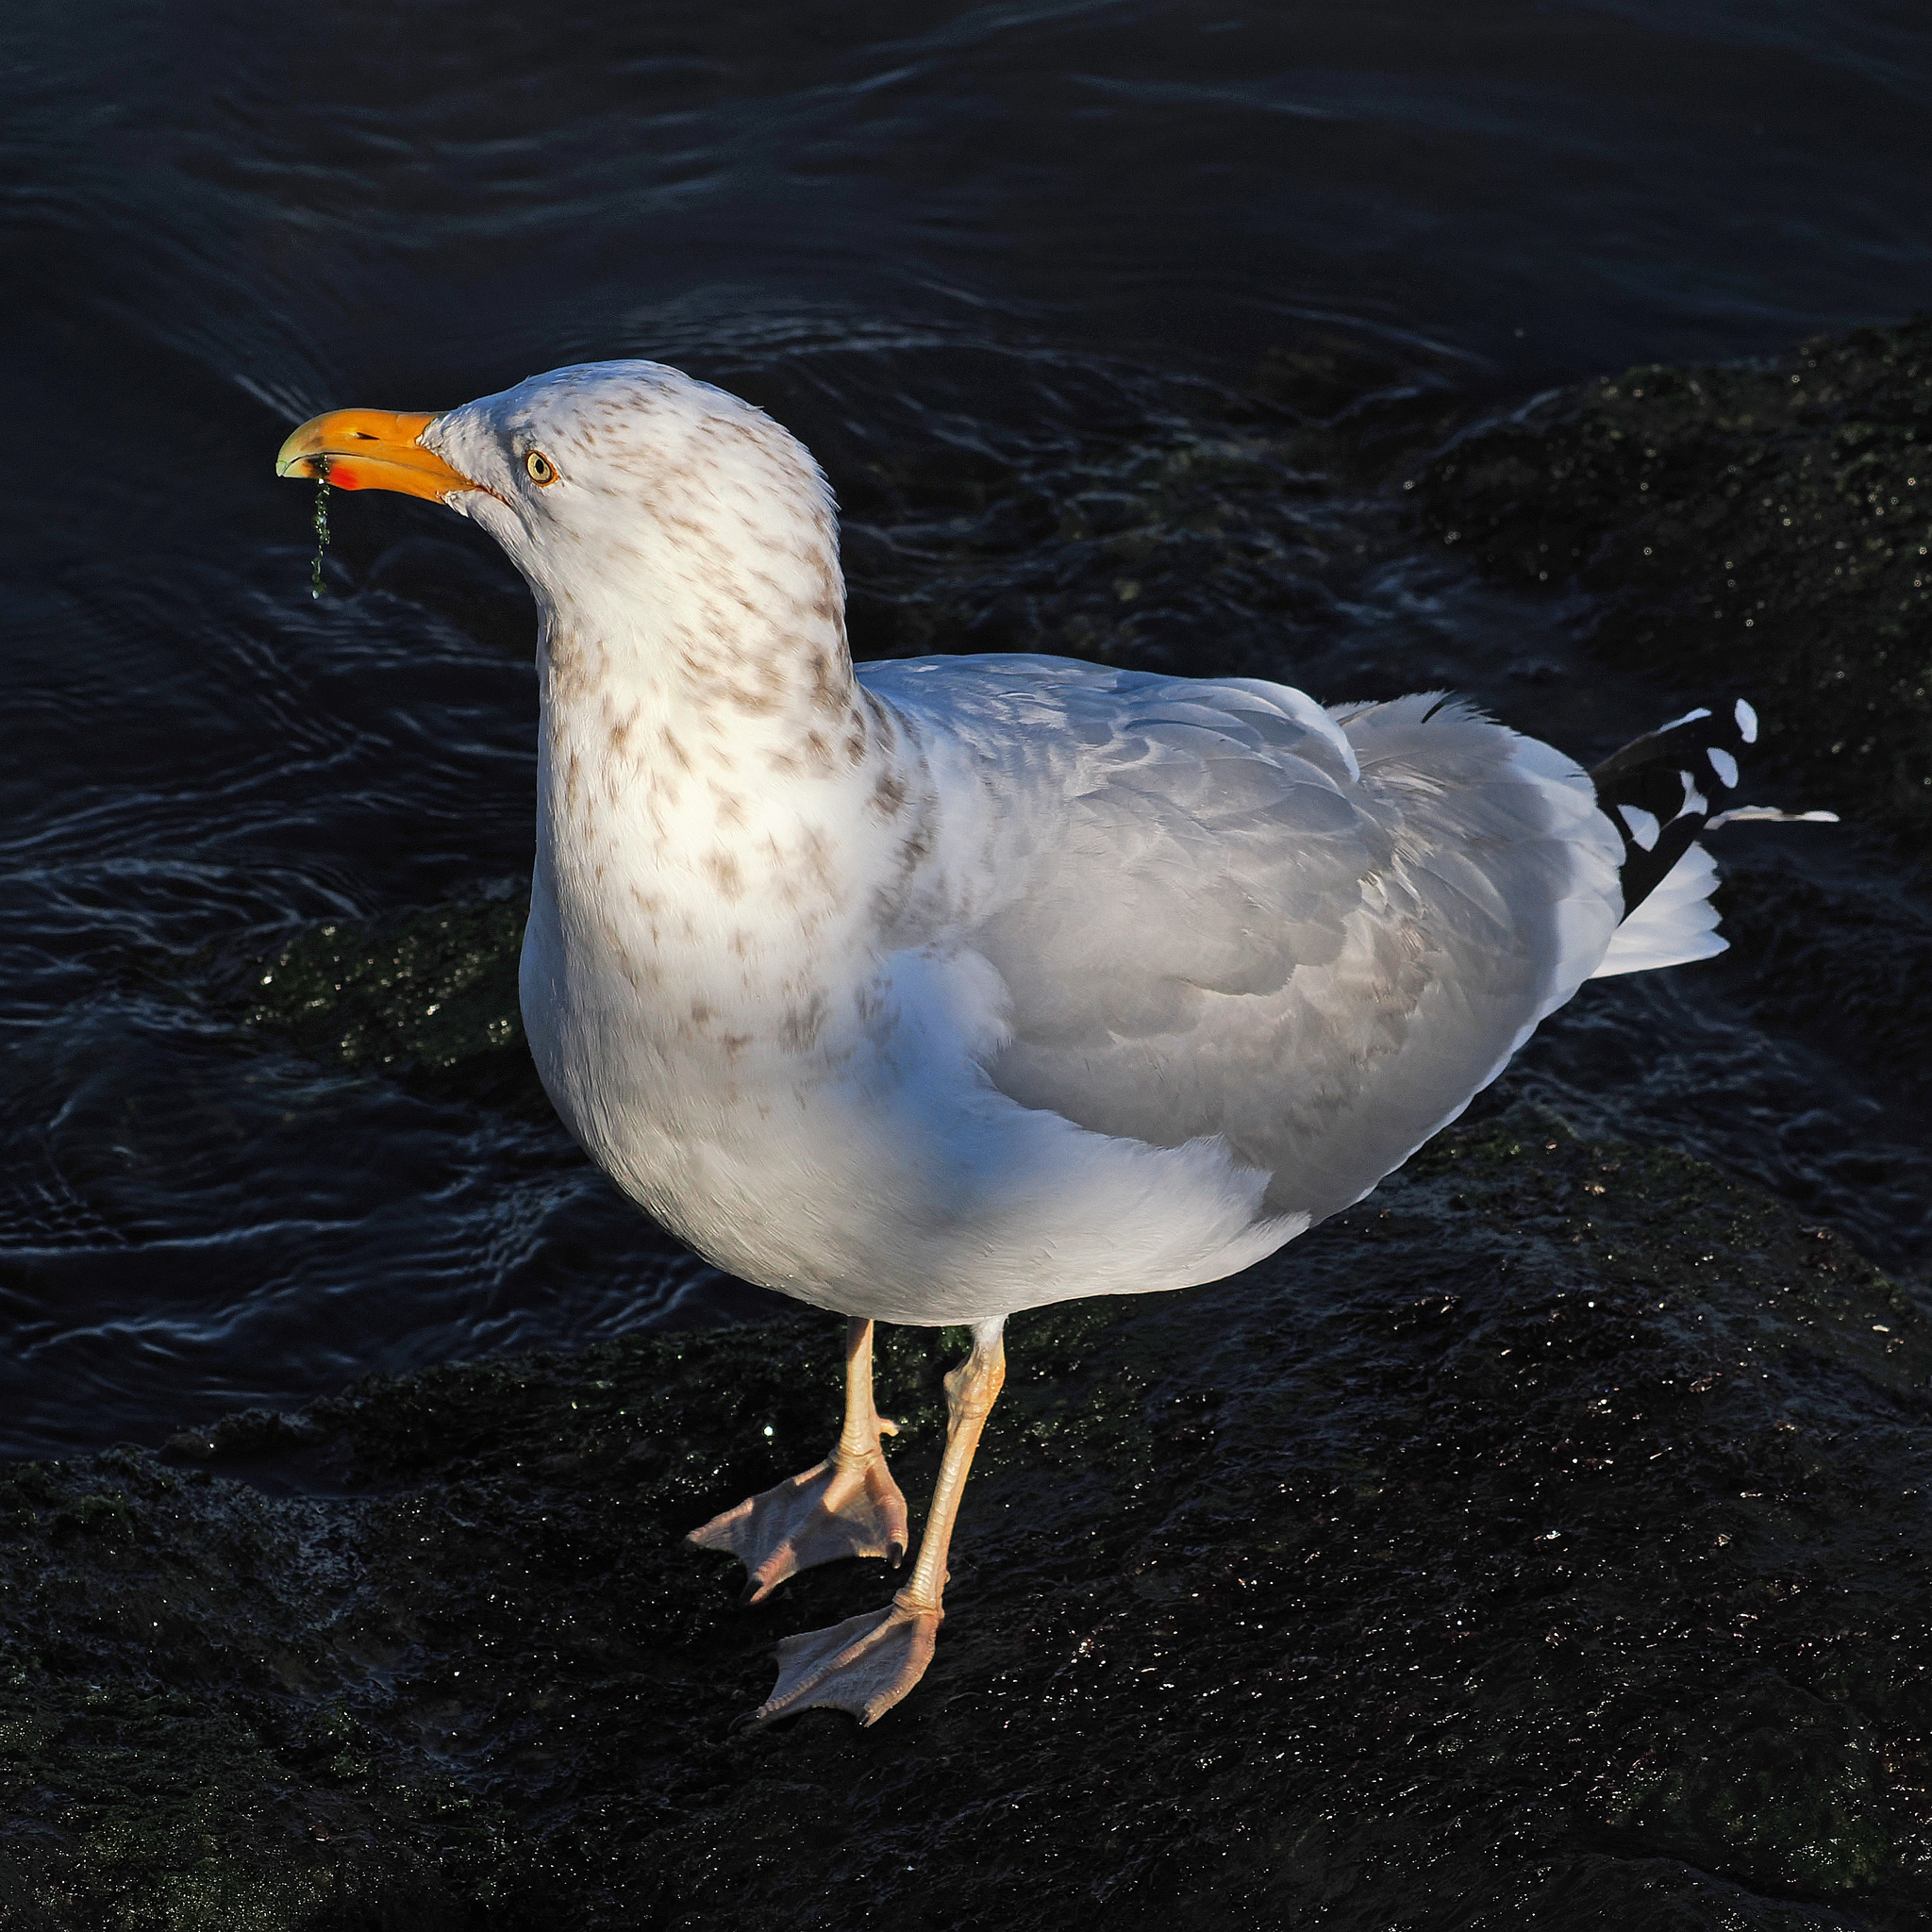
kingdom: Animalia
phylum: Chordata
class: Aves
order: Charadriiformes
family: Laridae
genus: Larus
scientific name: Larus argentatus
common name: Herring gull
